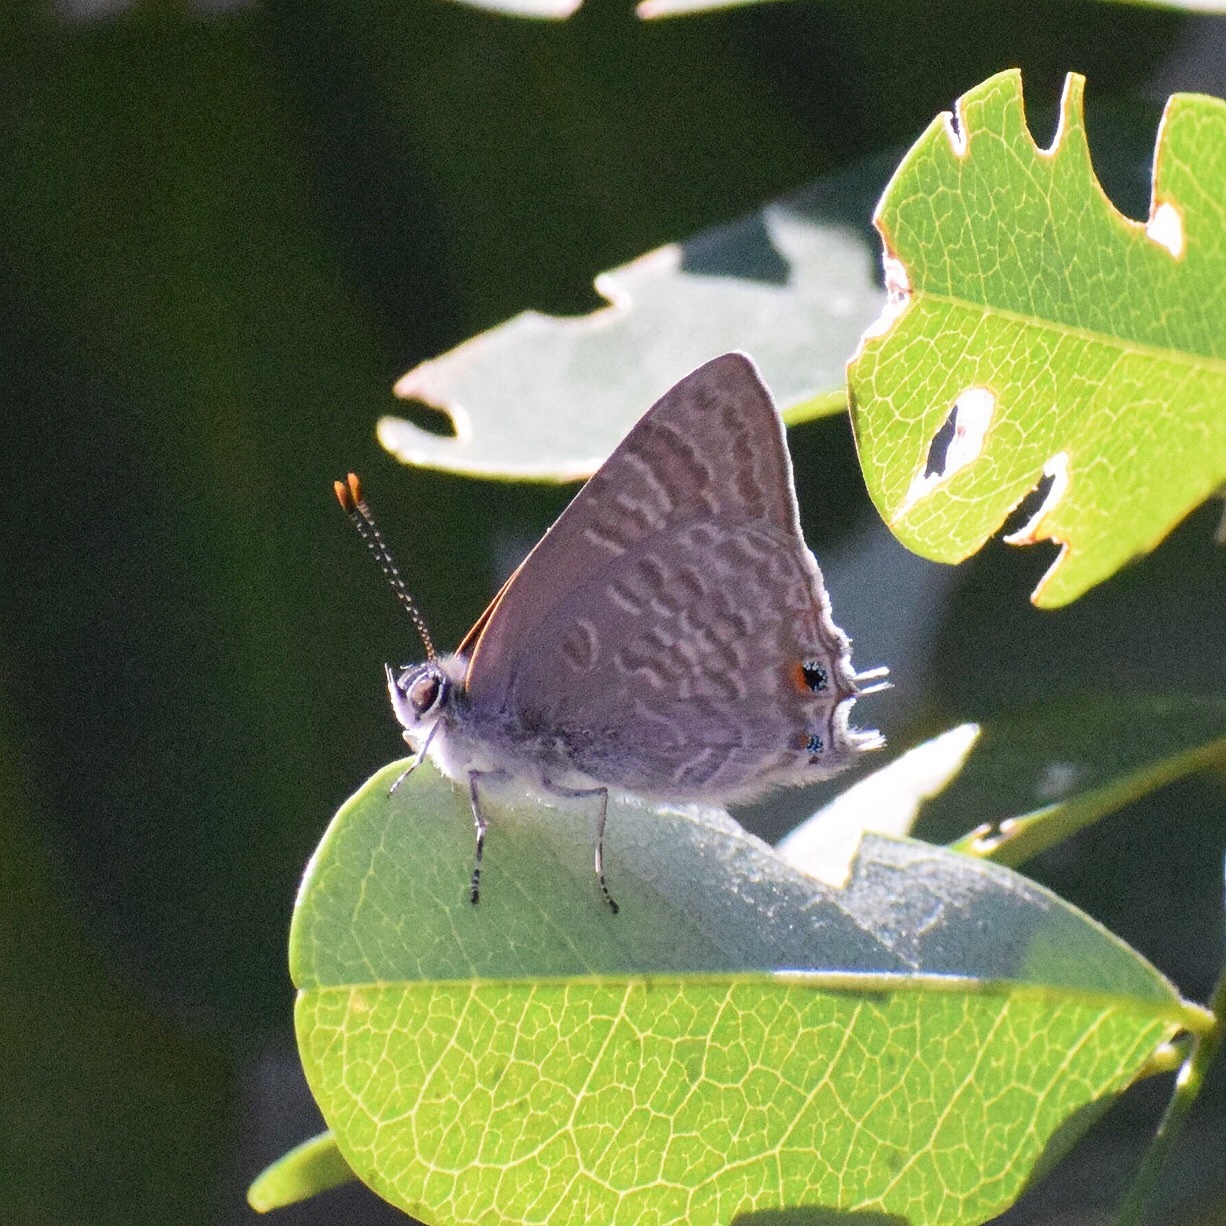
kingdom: Animalia
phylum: Arthropoda
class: Insecta
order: Lepidoptera
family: Lycaenidae
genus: Anthene
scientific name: Anthene definita
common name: Common ciliate blue
